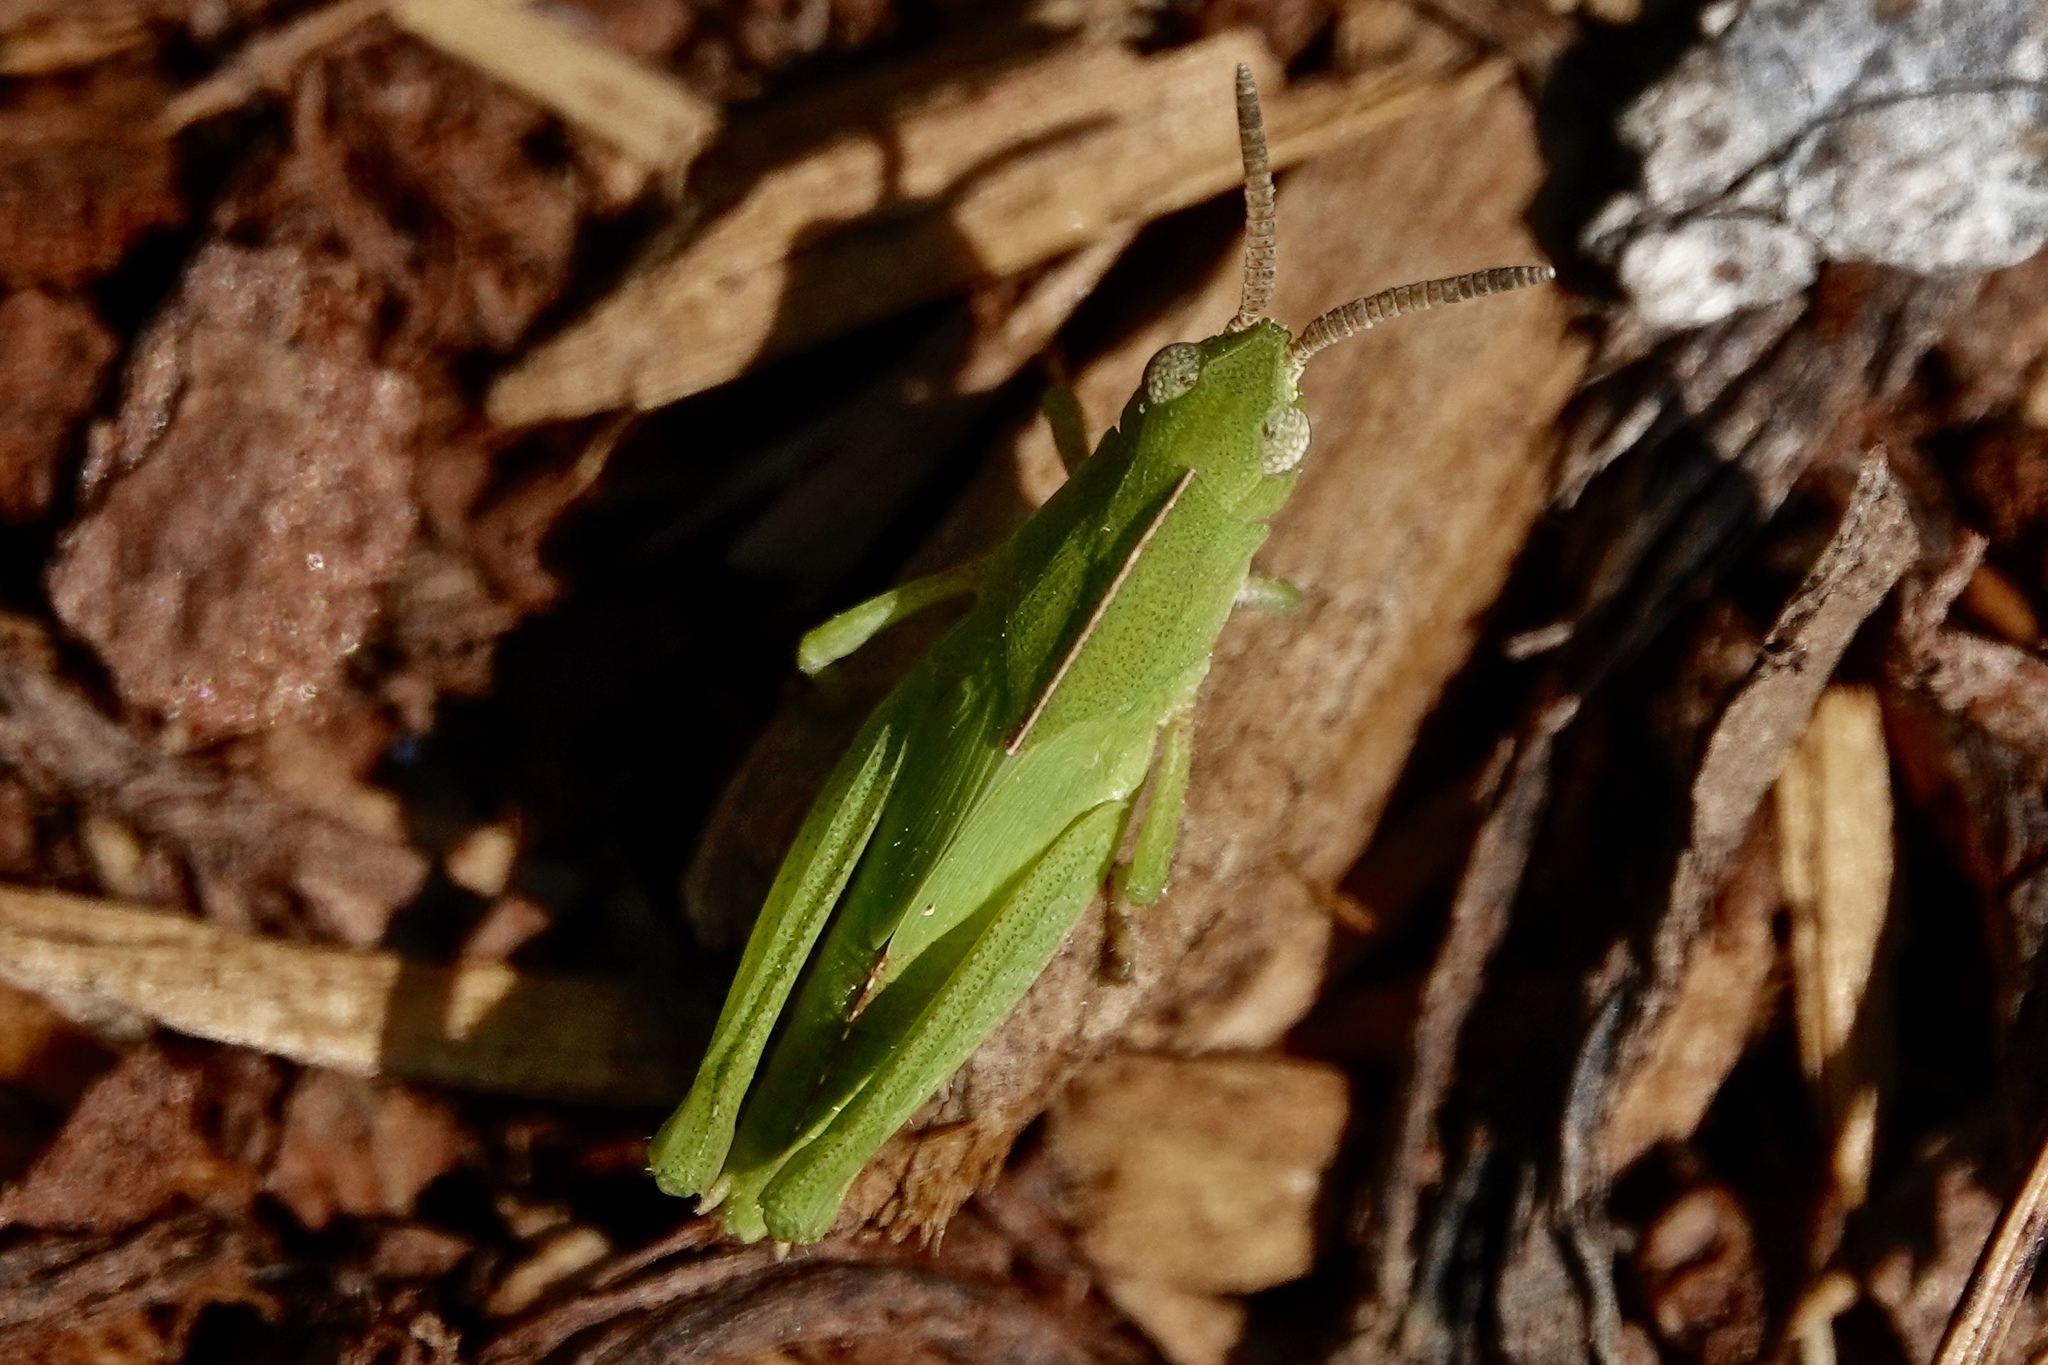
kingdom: Animalia
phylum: Arthropoda
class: Insecta
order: Orthoptera
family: Acrididae
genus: Chortophaga
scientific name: Chortophaga viridifasciata
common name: Green-striped grasshopper
